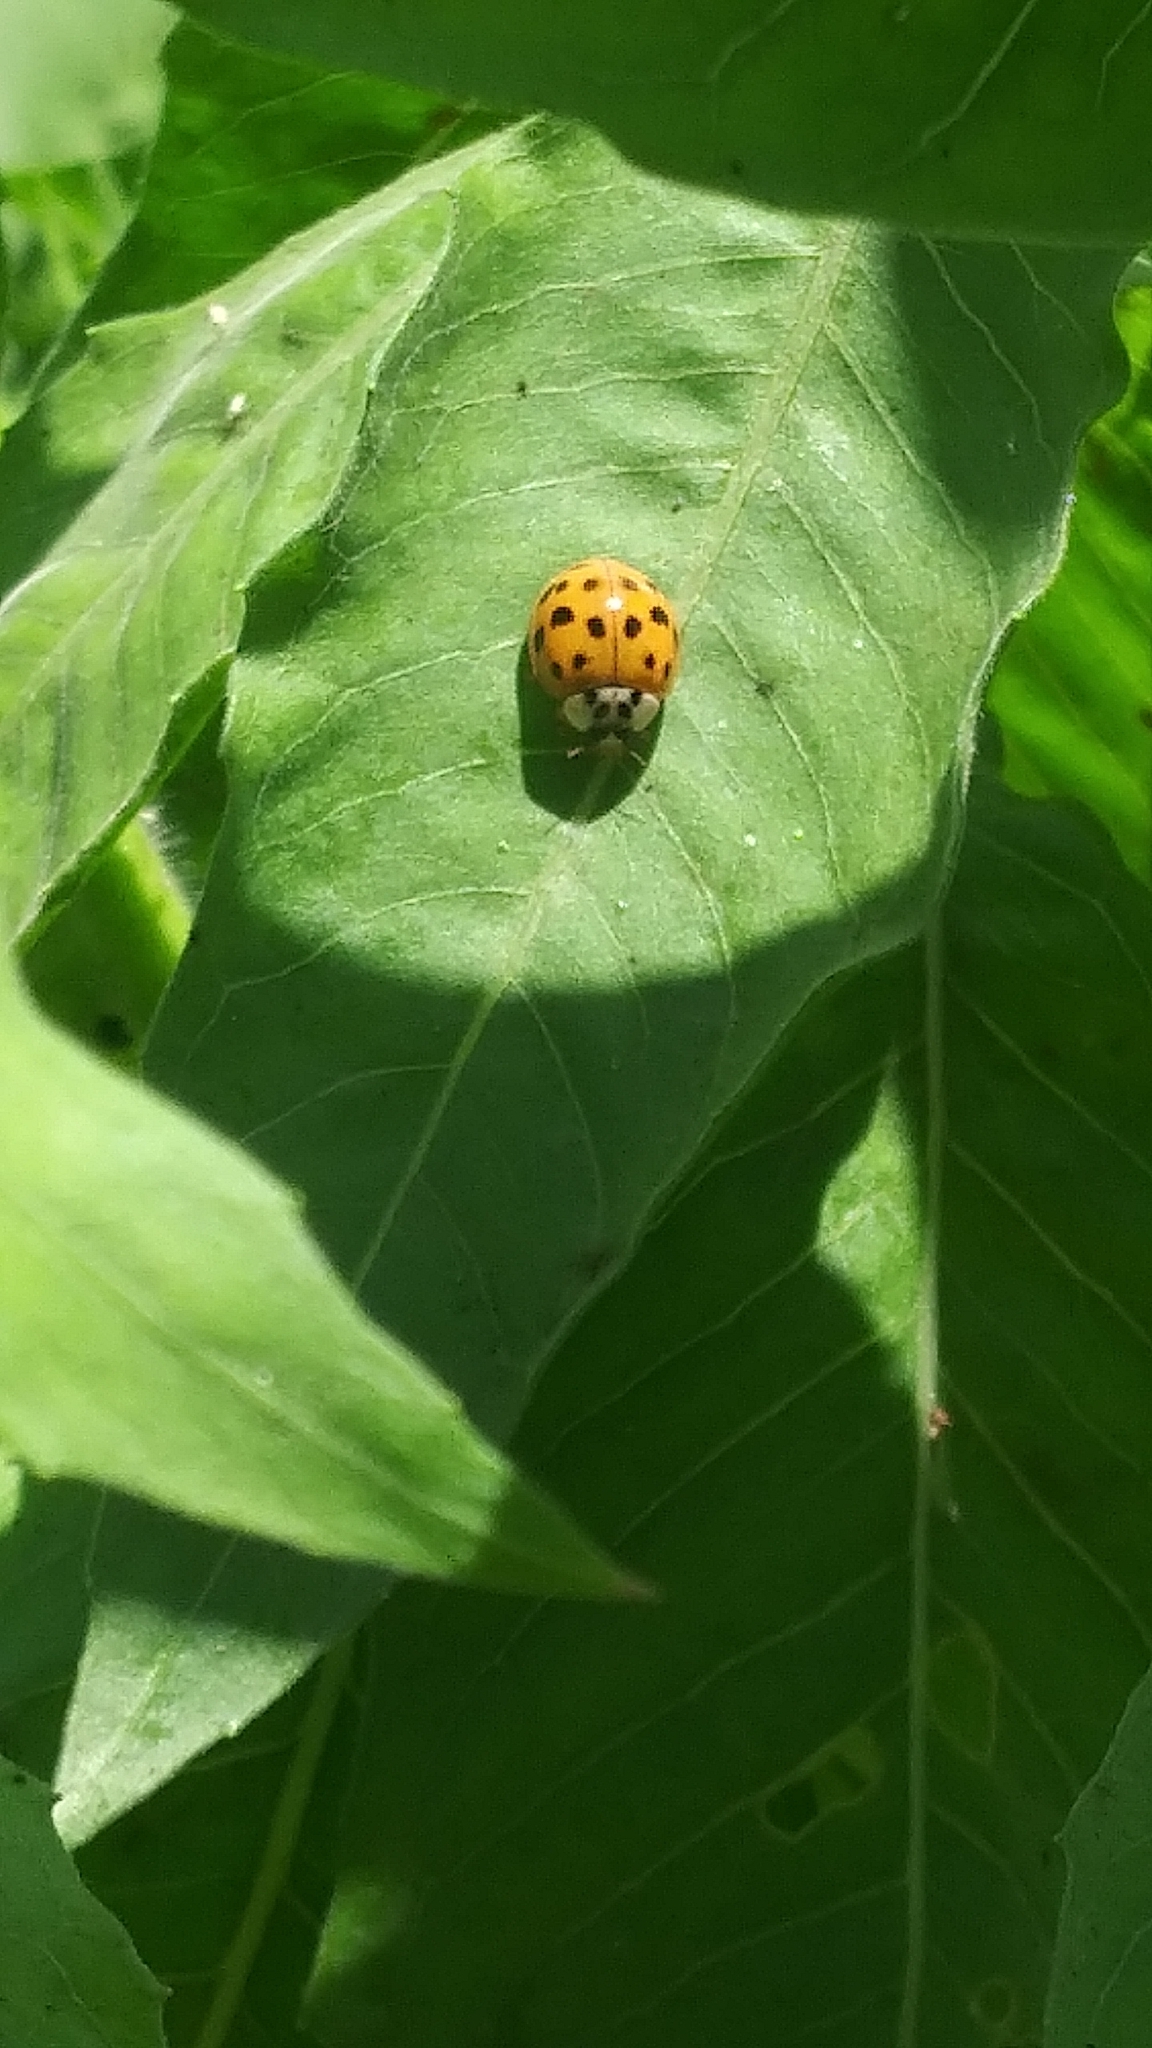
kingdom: Animalia
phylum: Arthropoda
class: Insecta
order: Coleoptera
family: Coccinellidae
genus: Harmonia
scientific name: Harmonia axyridis
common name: Harlequin ladybird
